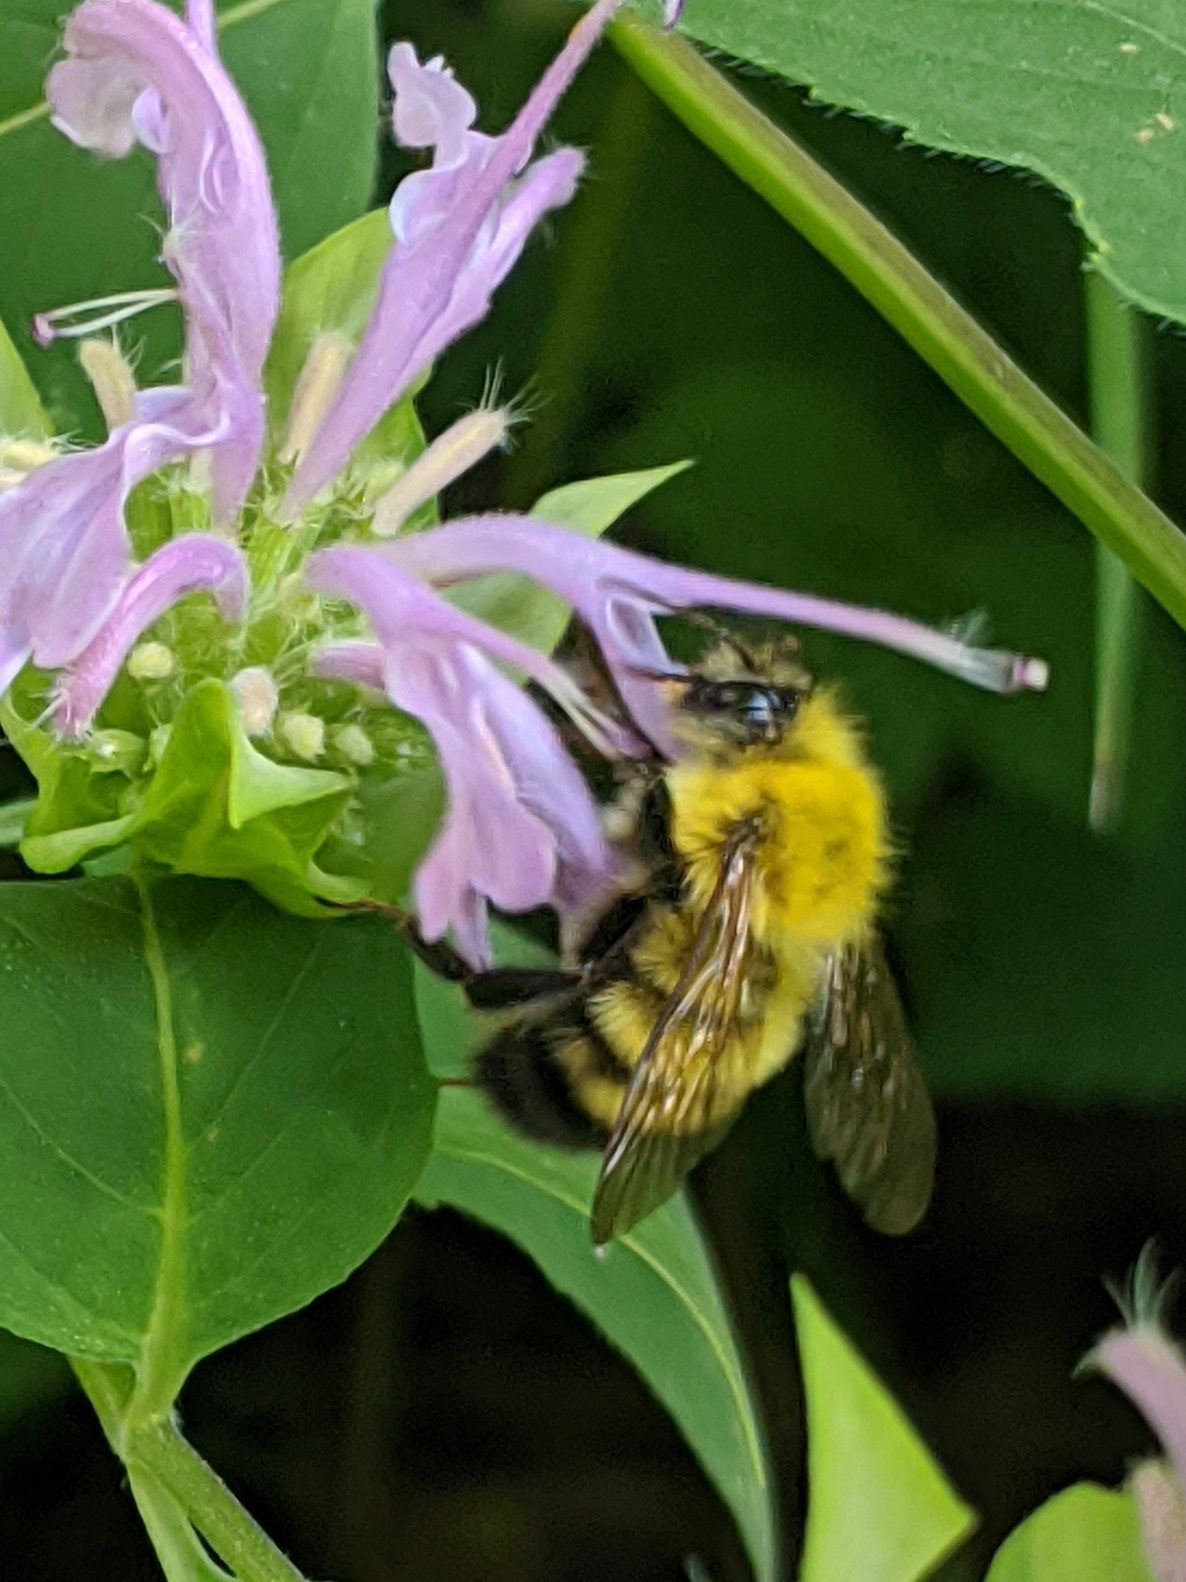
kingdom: Animalia
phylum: Arthropoda
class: Insecta
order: Hymenoptera
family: Apidae
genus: Bombus
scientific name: Bombus perplexus
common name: Confusing bumble bee
